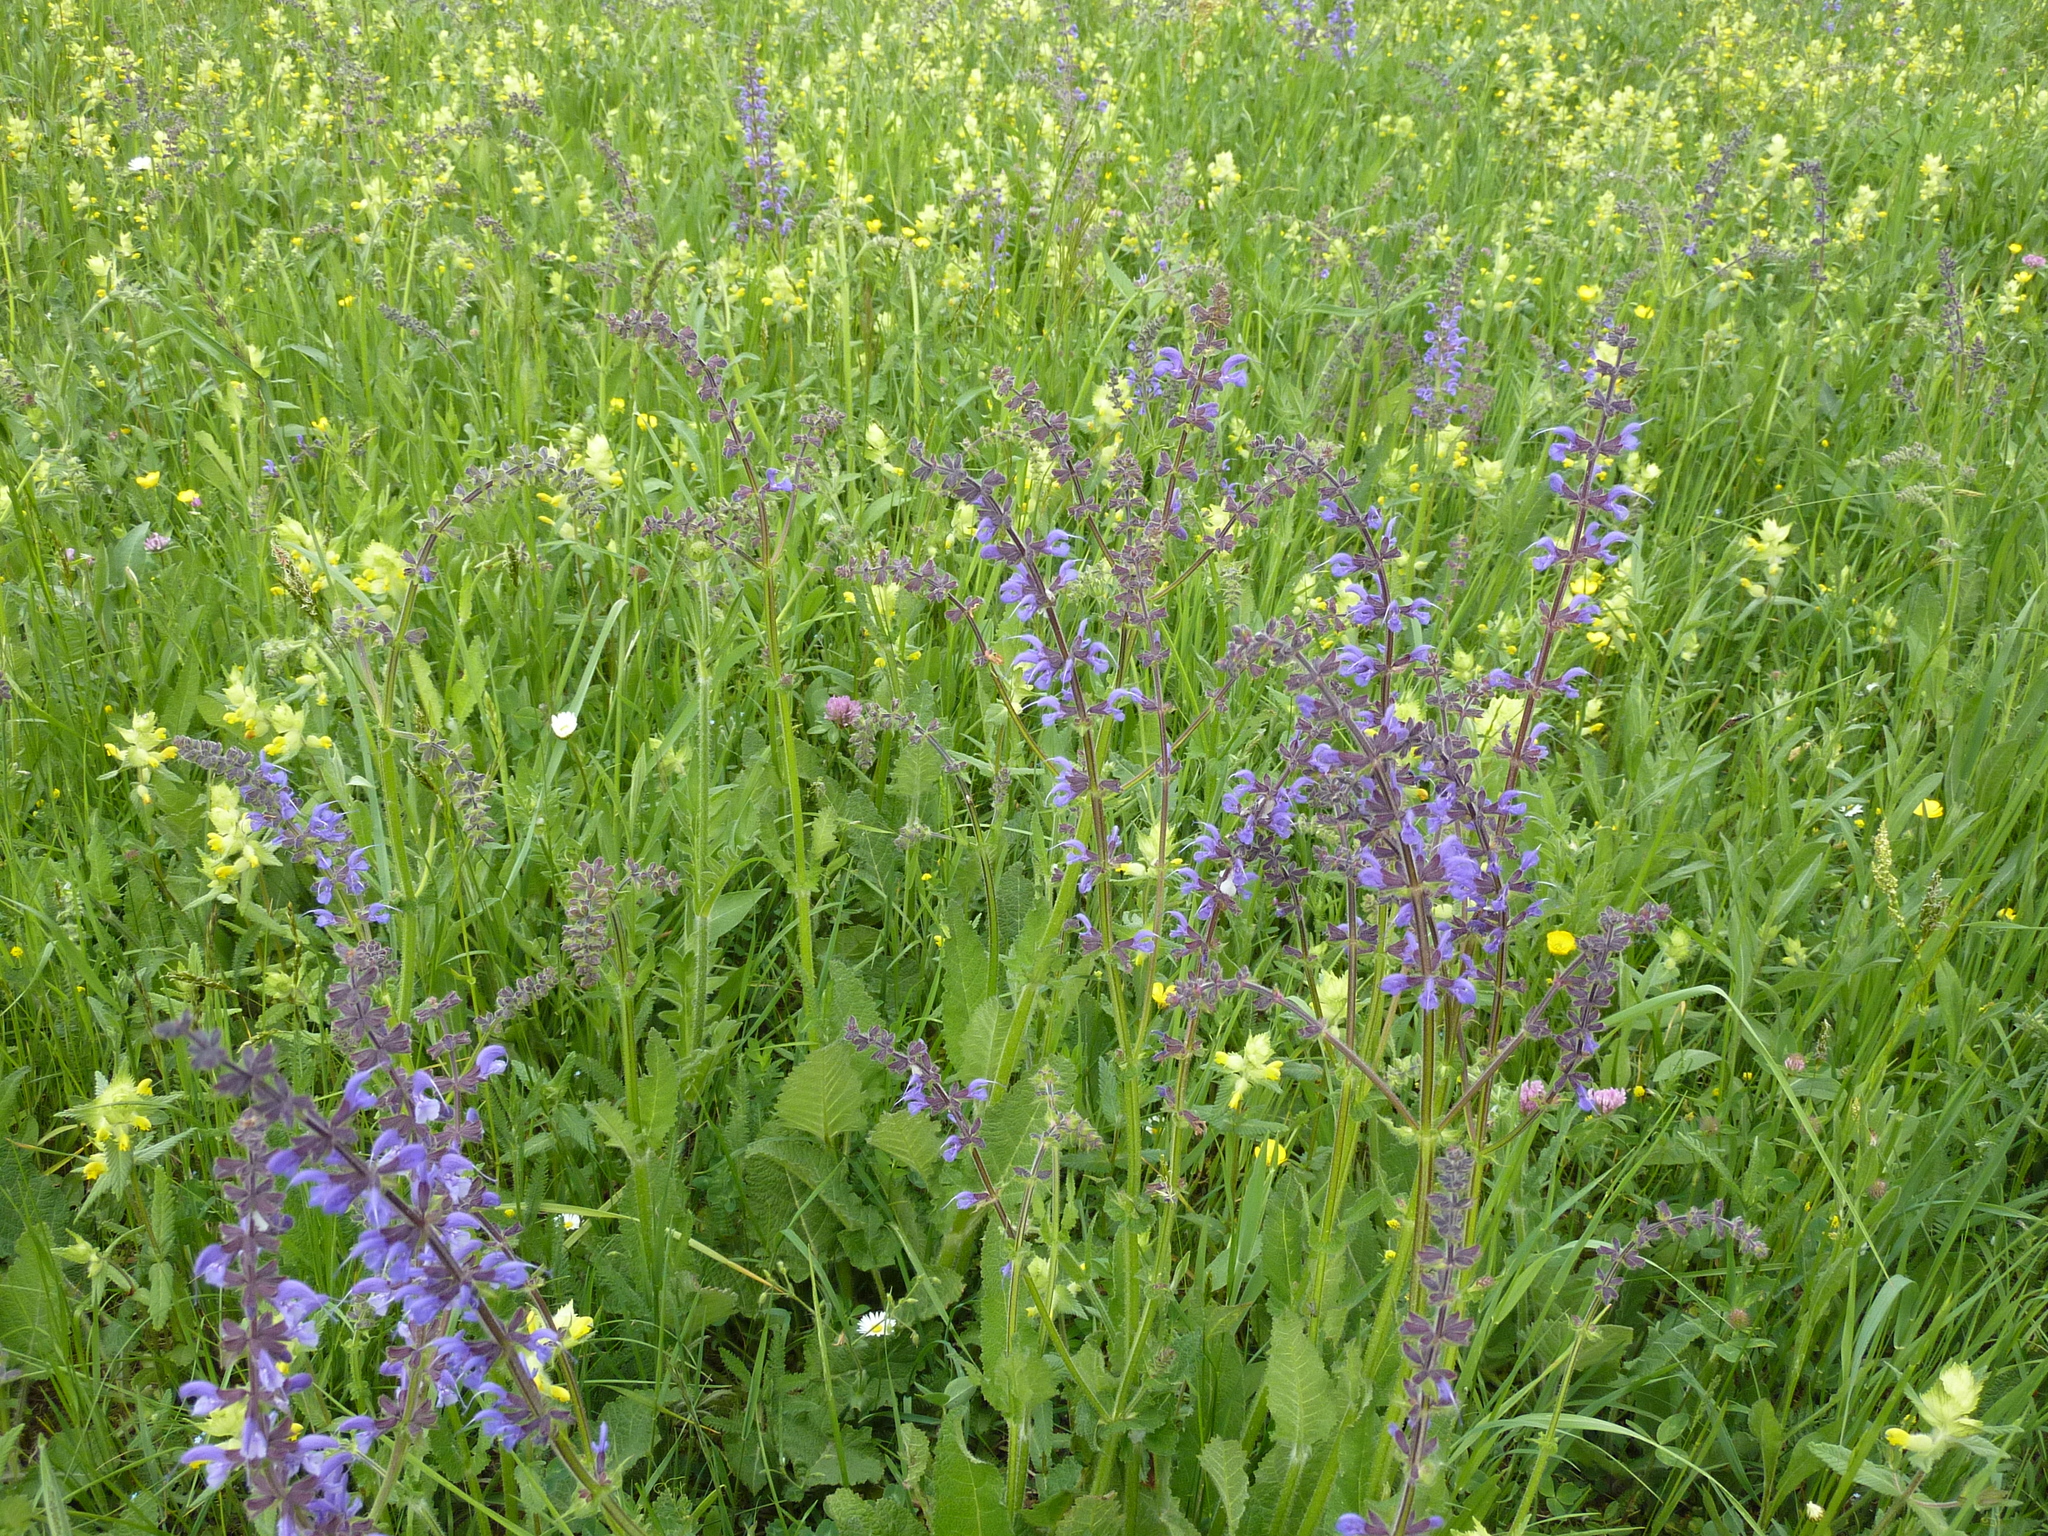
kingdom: Plantae
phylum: Tracheophyta
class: Magnoliopsida
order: Lamiales
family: Lamiaceae
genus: Salvia
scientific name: Salvia pratensis
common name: Meadow sage
